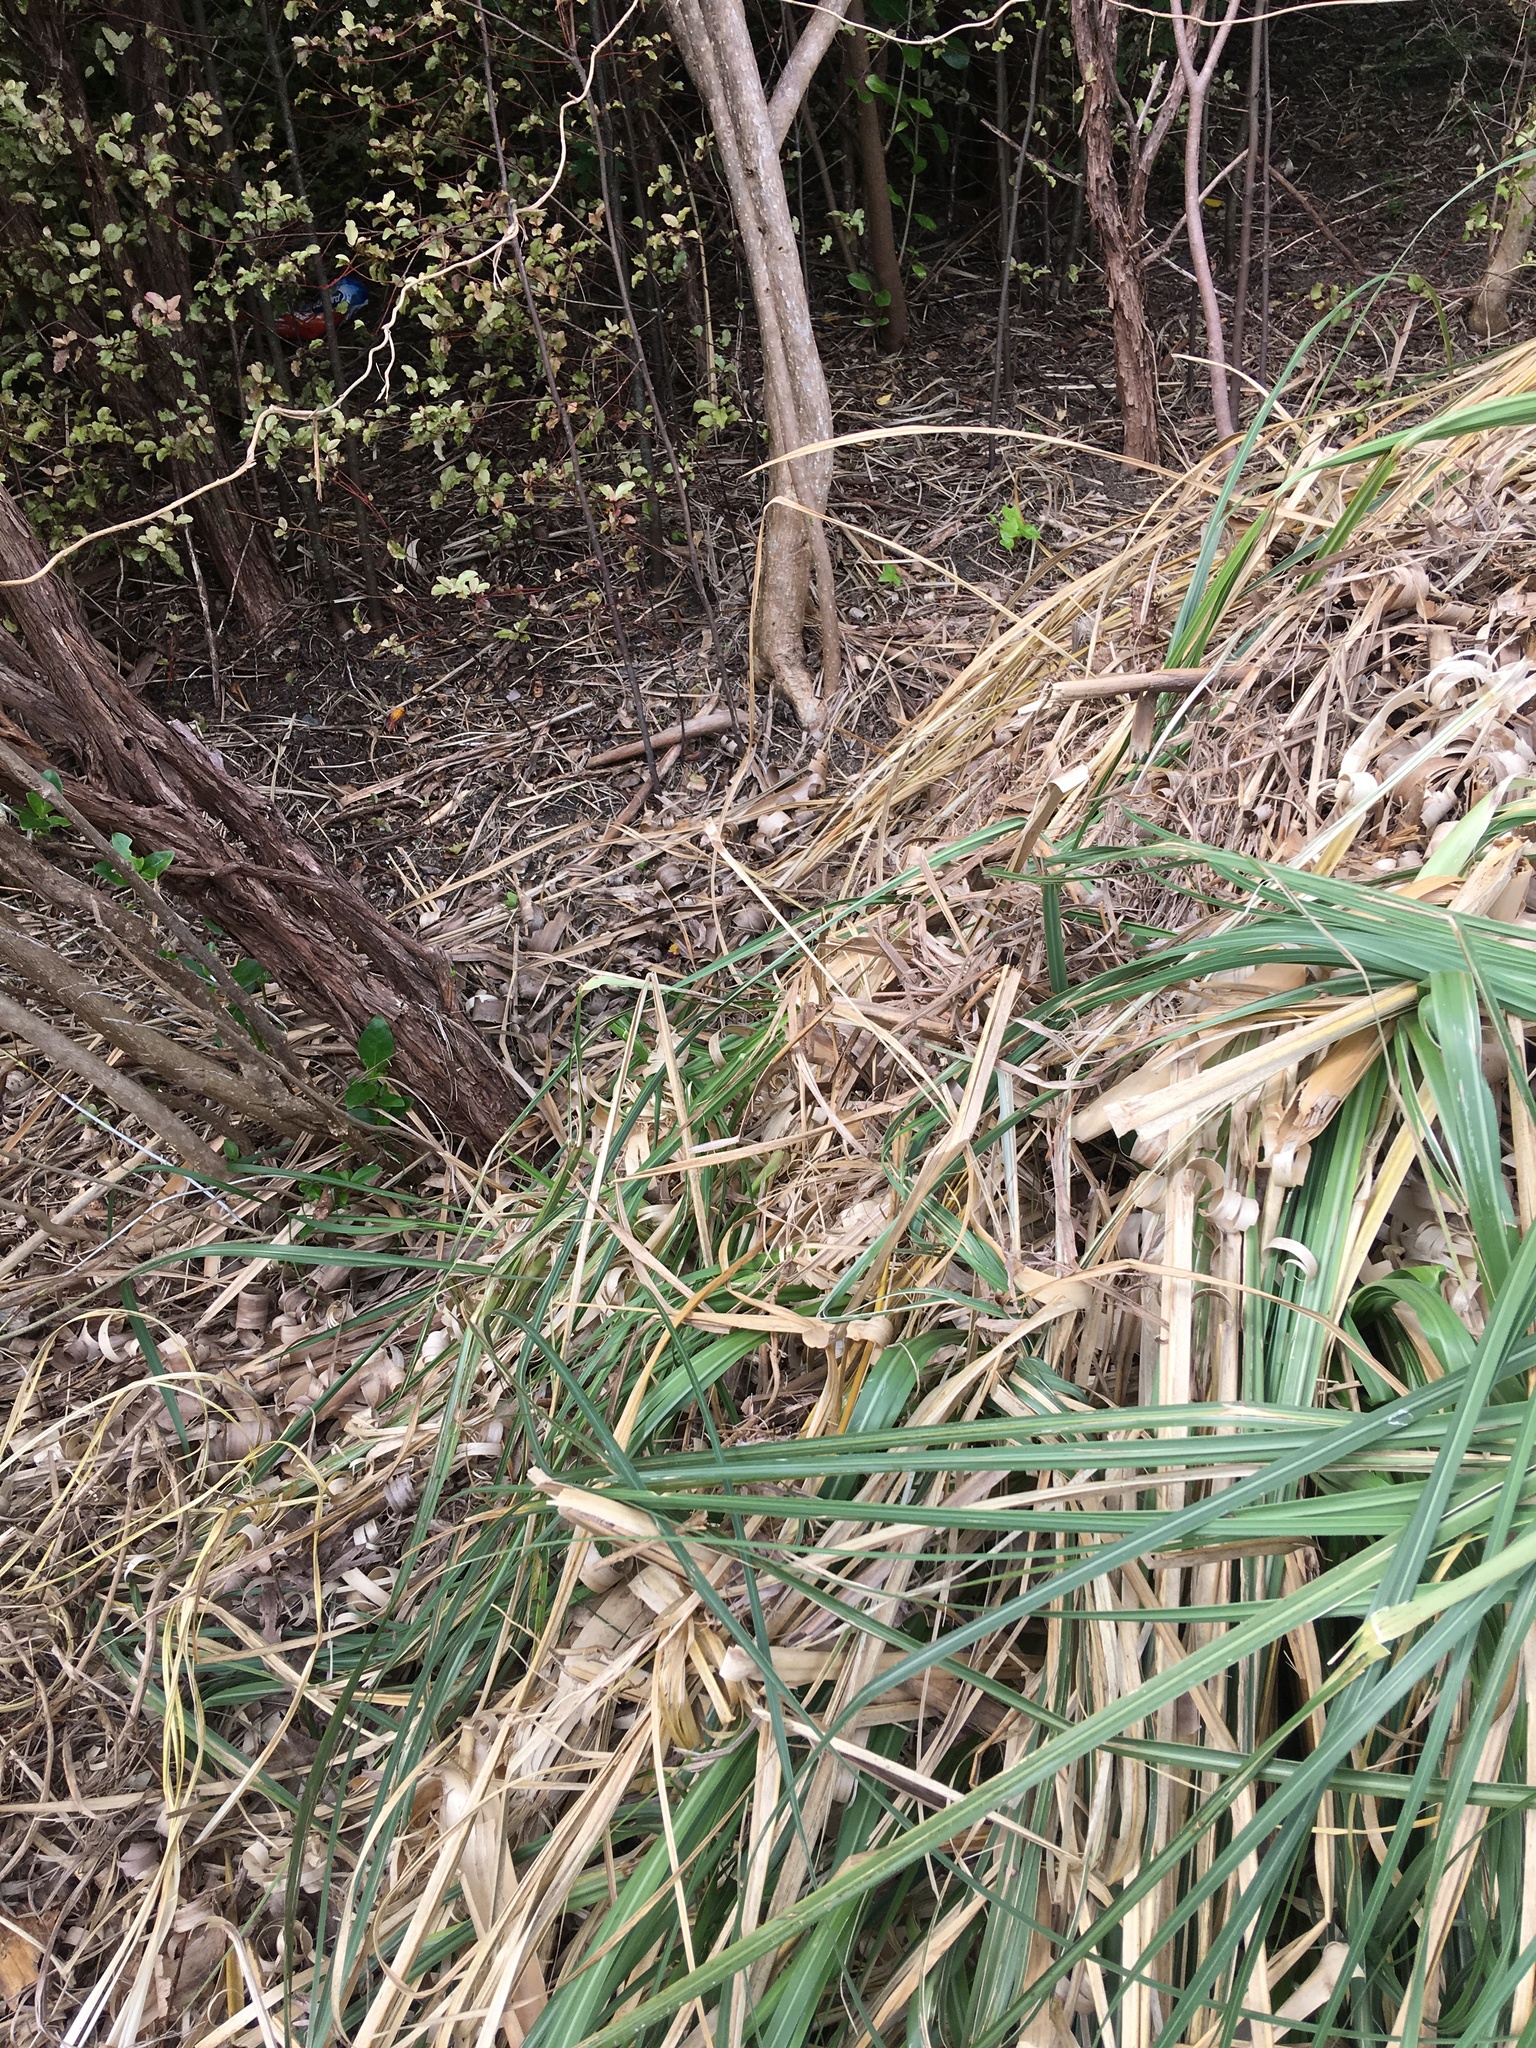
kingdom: Plantae
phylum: Tracheophyta
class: Magnoliopsida
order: Myrtales
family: Myrtaceae
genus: Leptospermum
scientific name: Leptospermum scoparium
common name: Broom tea-tree
